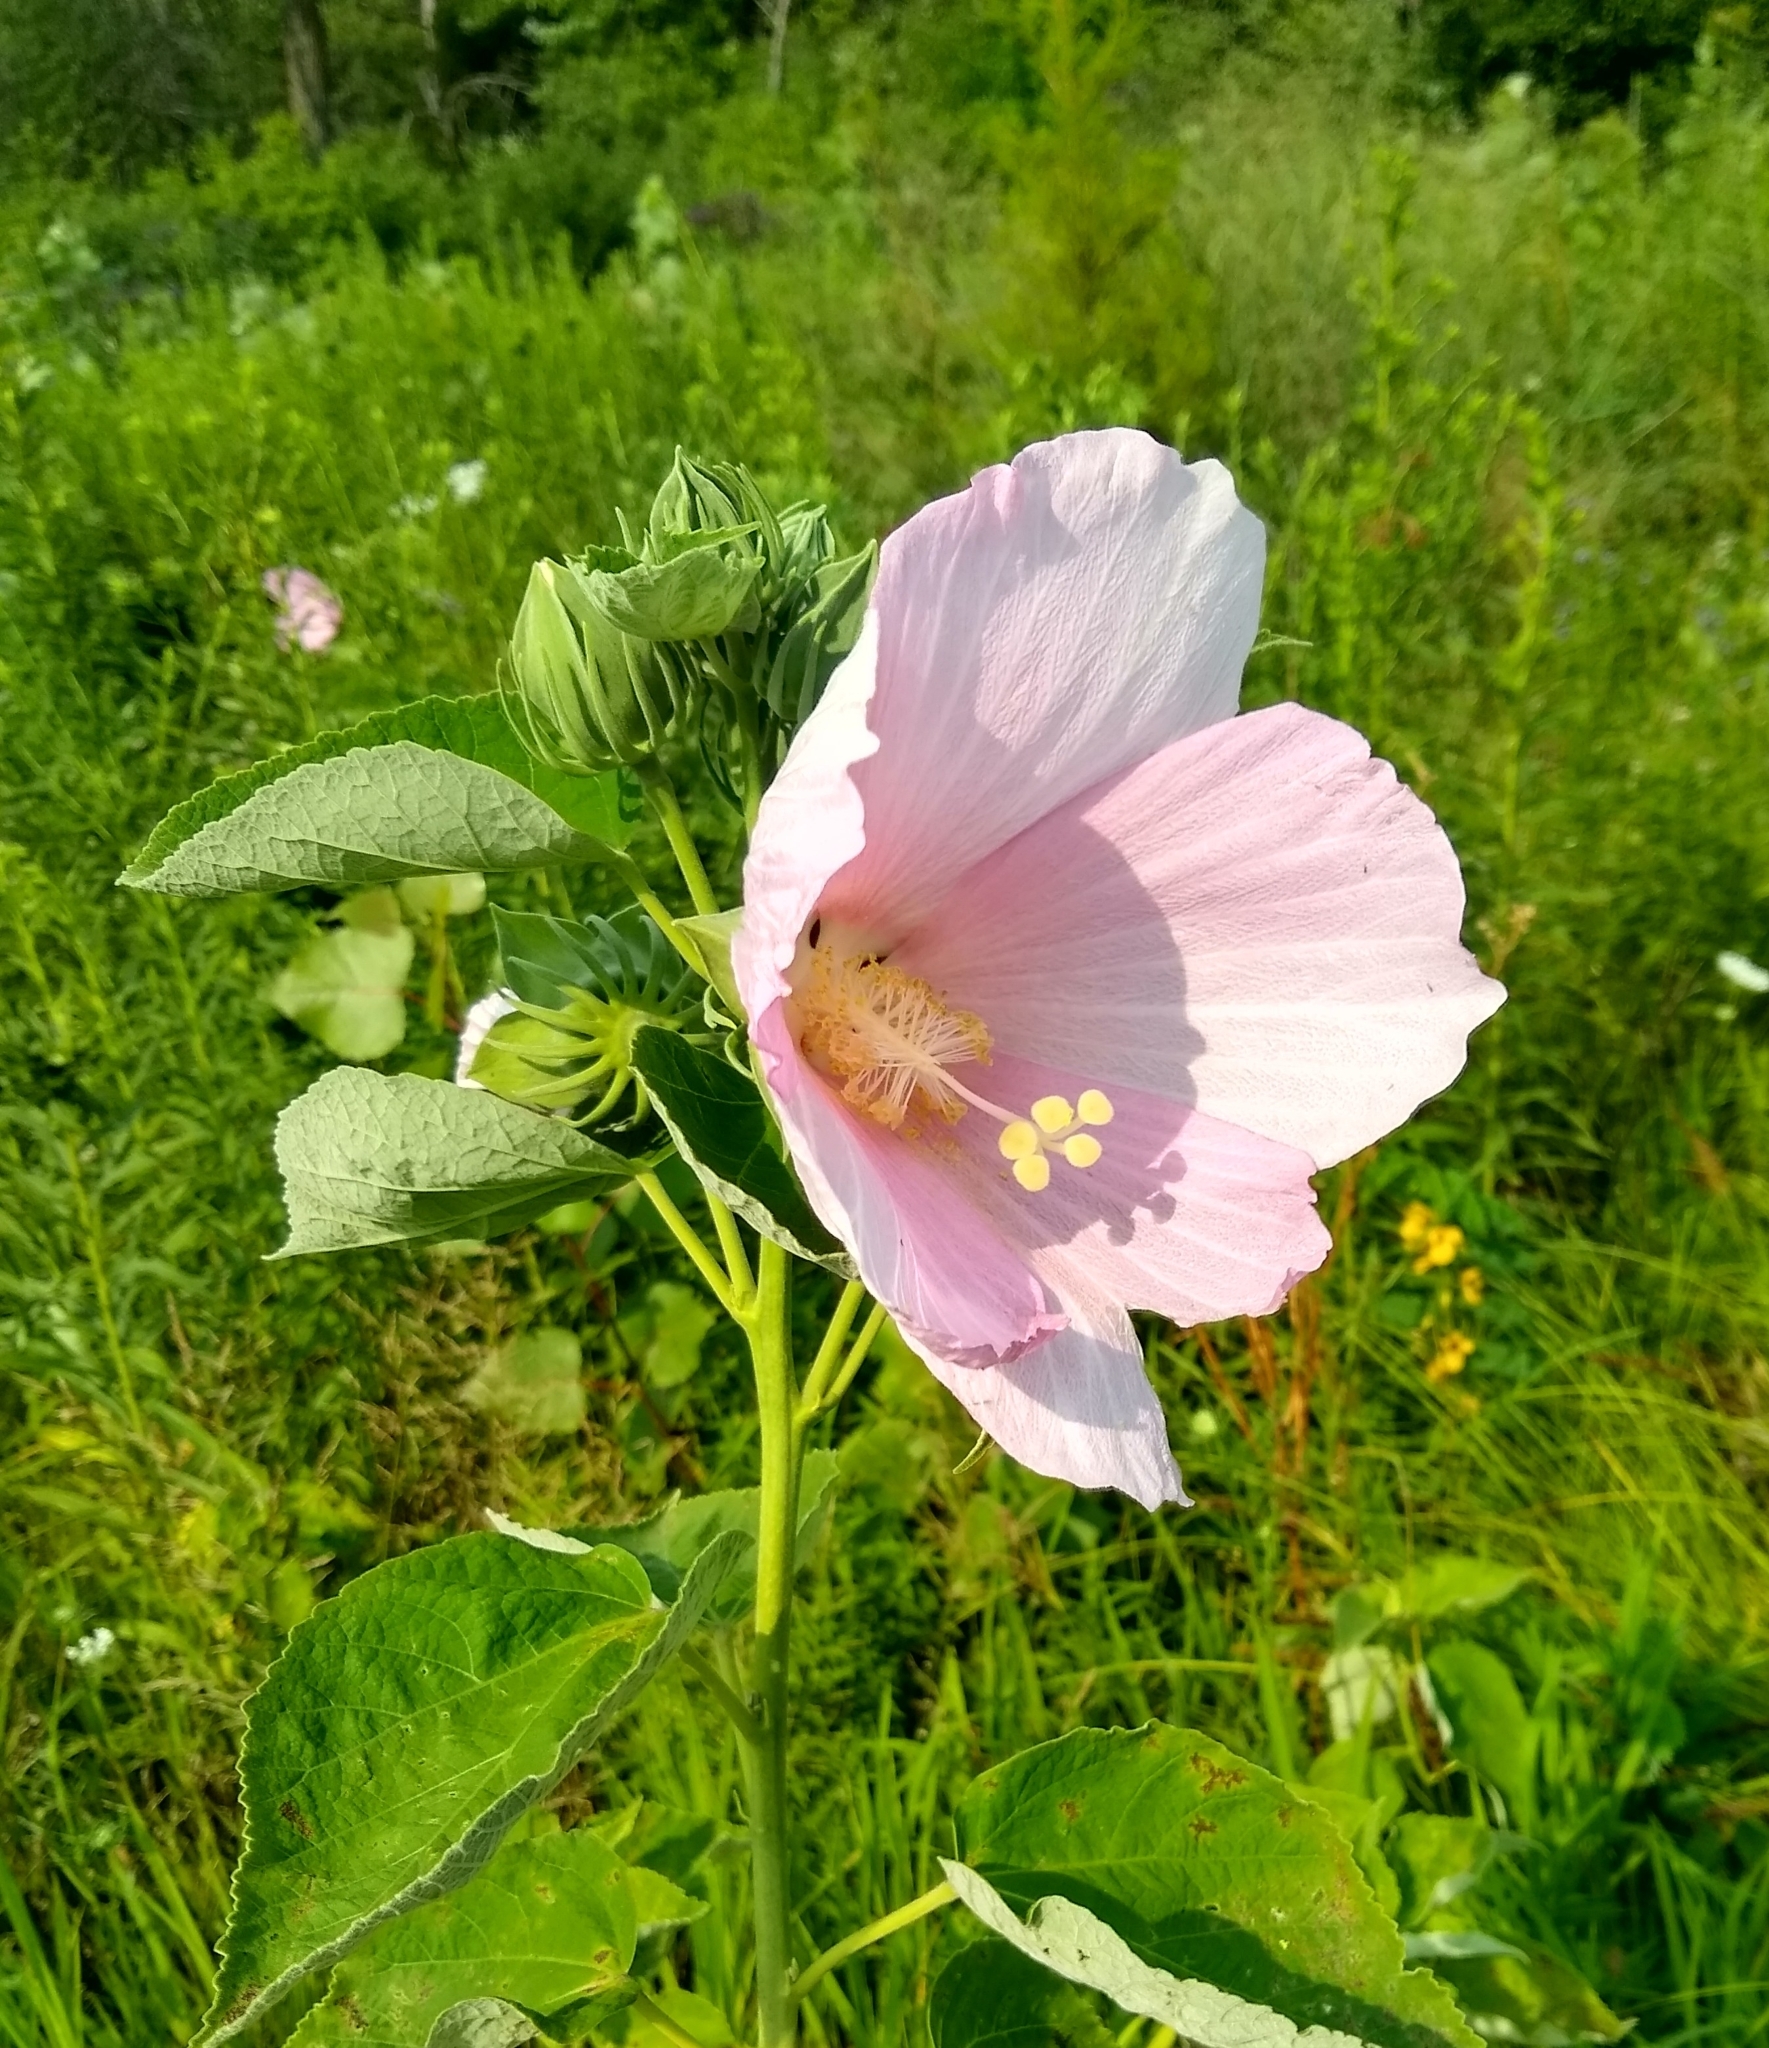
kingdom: Plantae
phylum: Tracheophyta
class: Magnoliopsida
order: Malvales
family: Malvaceae
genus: Hibiscus
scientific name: Hibiscus moscheutos
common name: Common rose-mallow
